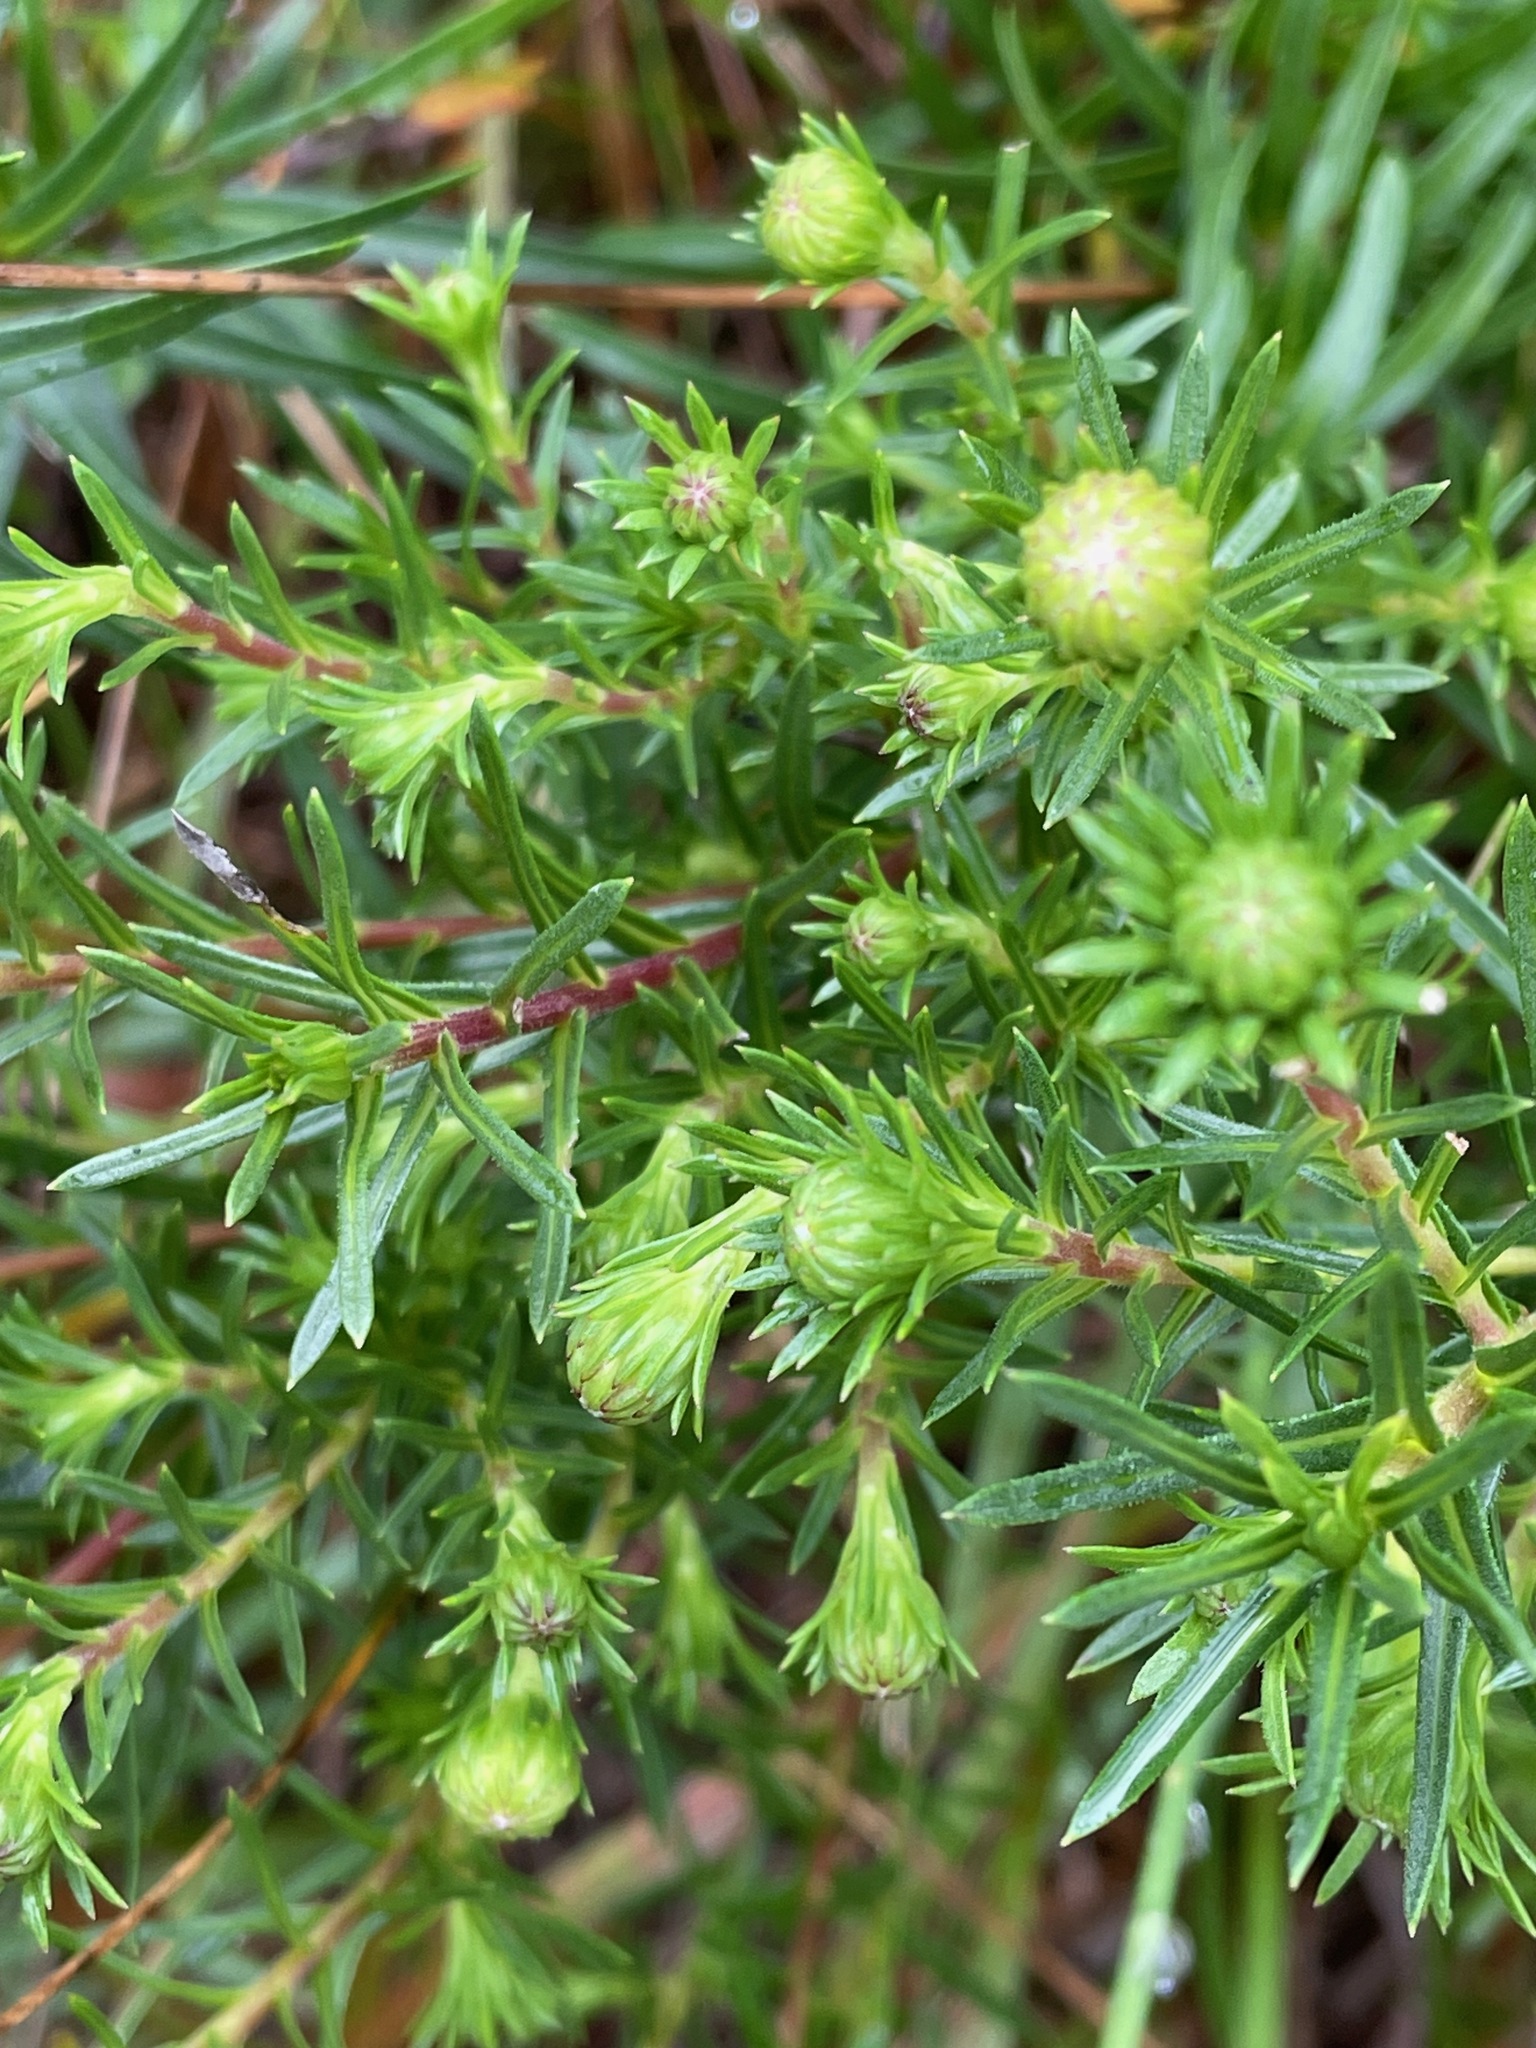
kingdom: Plantae
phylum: Tracheophyta
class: Magnoliopsida
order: Asterales
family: Asteraceae
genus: Ionactis
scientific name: Ionactis linariifolia
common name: Flax-leaf aster
